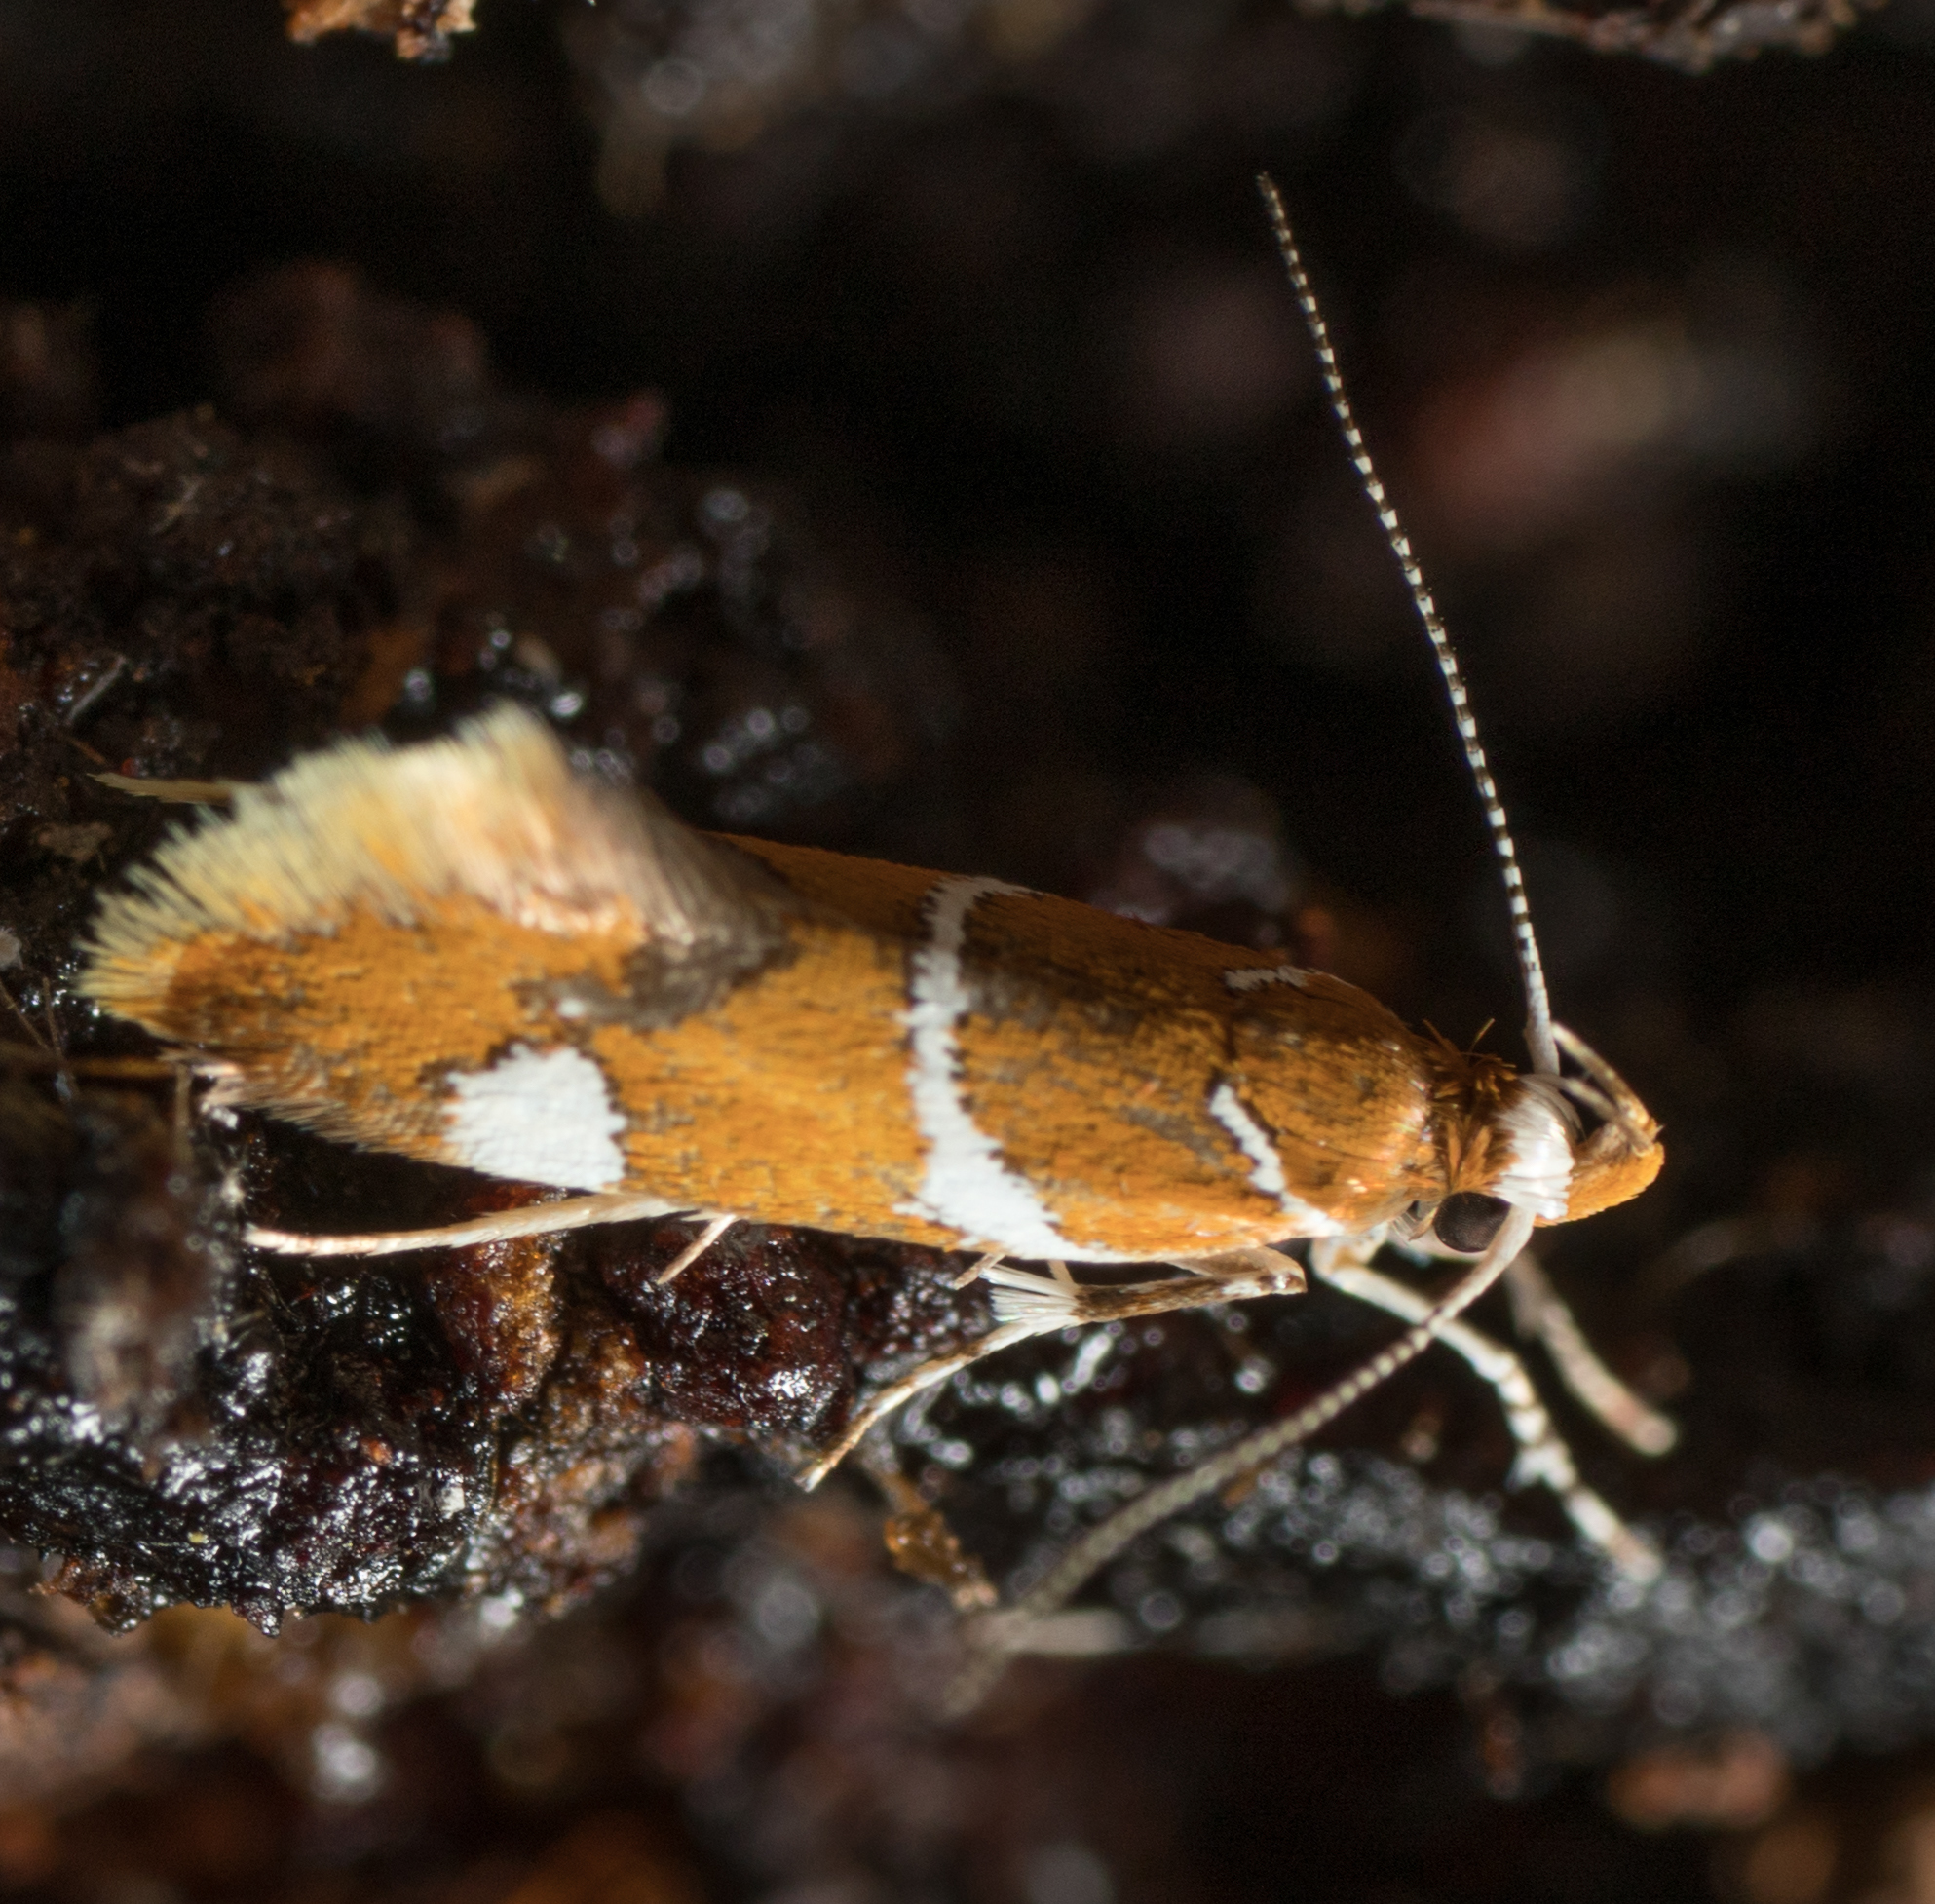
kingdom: Animalia
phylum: Arthropoda
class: Insecta
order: Lepidoptera
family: Oecophoridae
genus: Promalactis
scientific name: Promalactis suzukiella
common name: Moth
